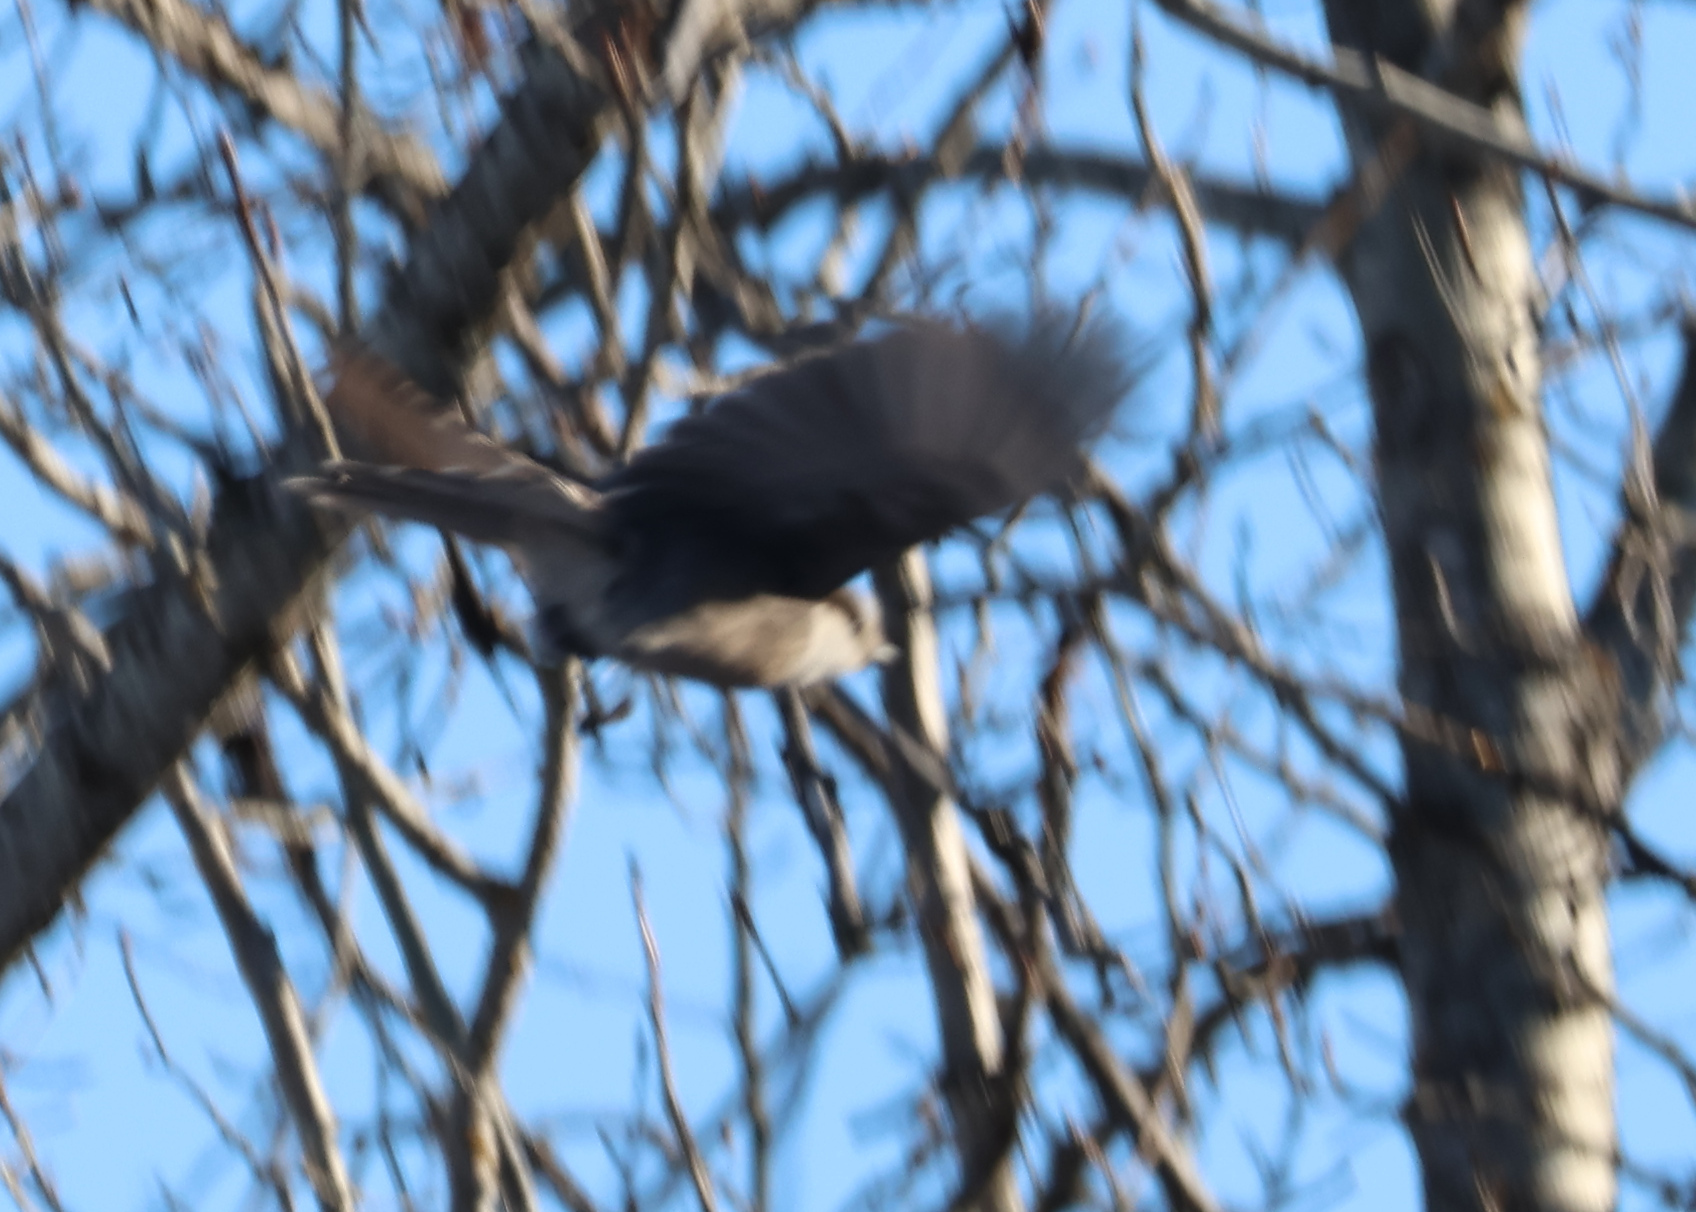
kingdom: Animalia
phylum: Chordata
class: Aves
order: Passeriformes
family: Corvidae
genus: Perisoreus
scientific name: Perisoreus canadensis
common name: Gray jay
